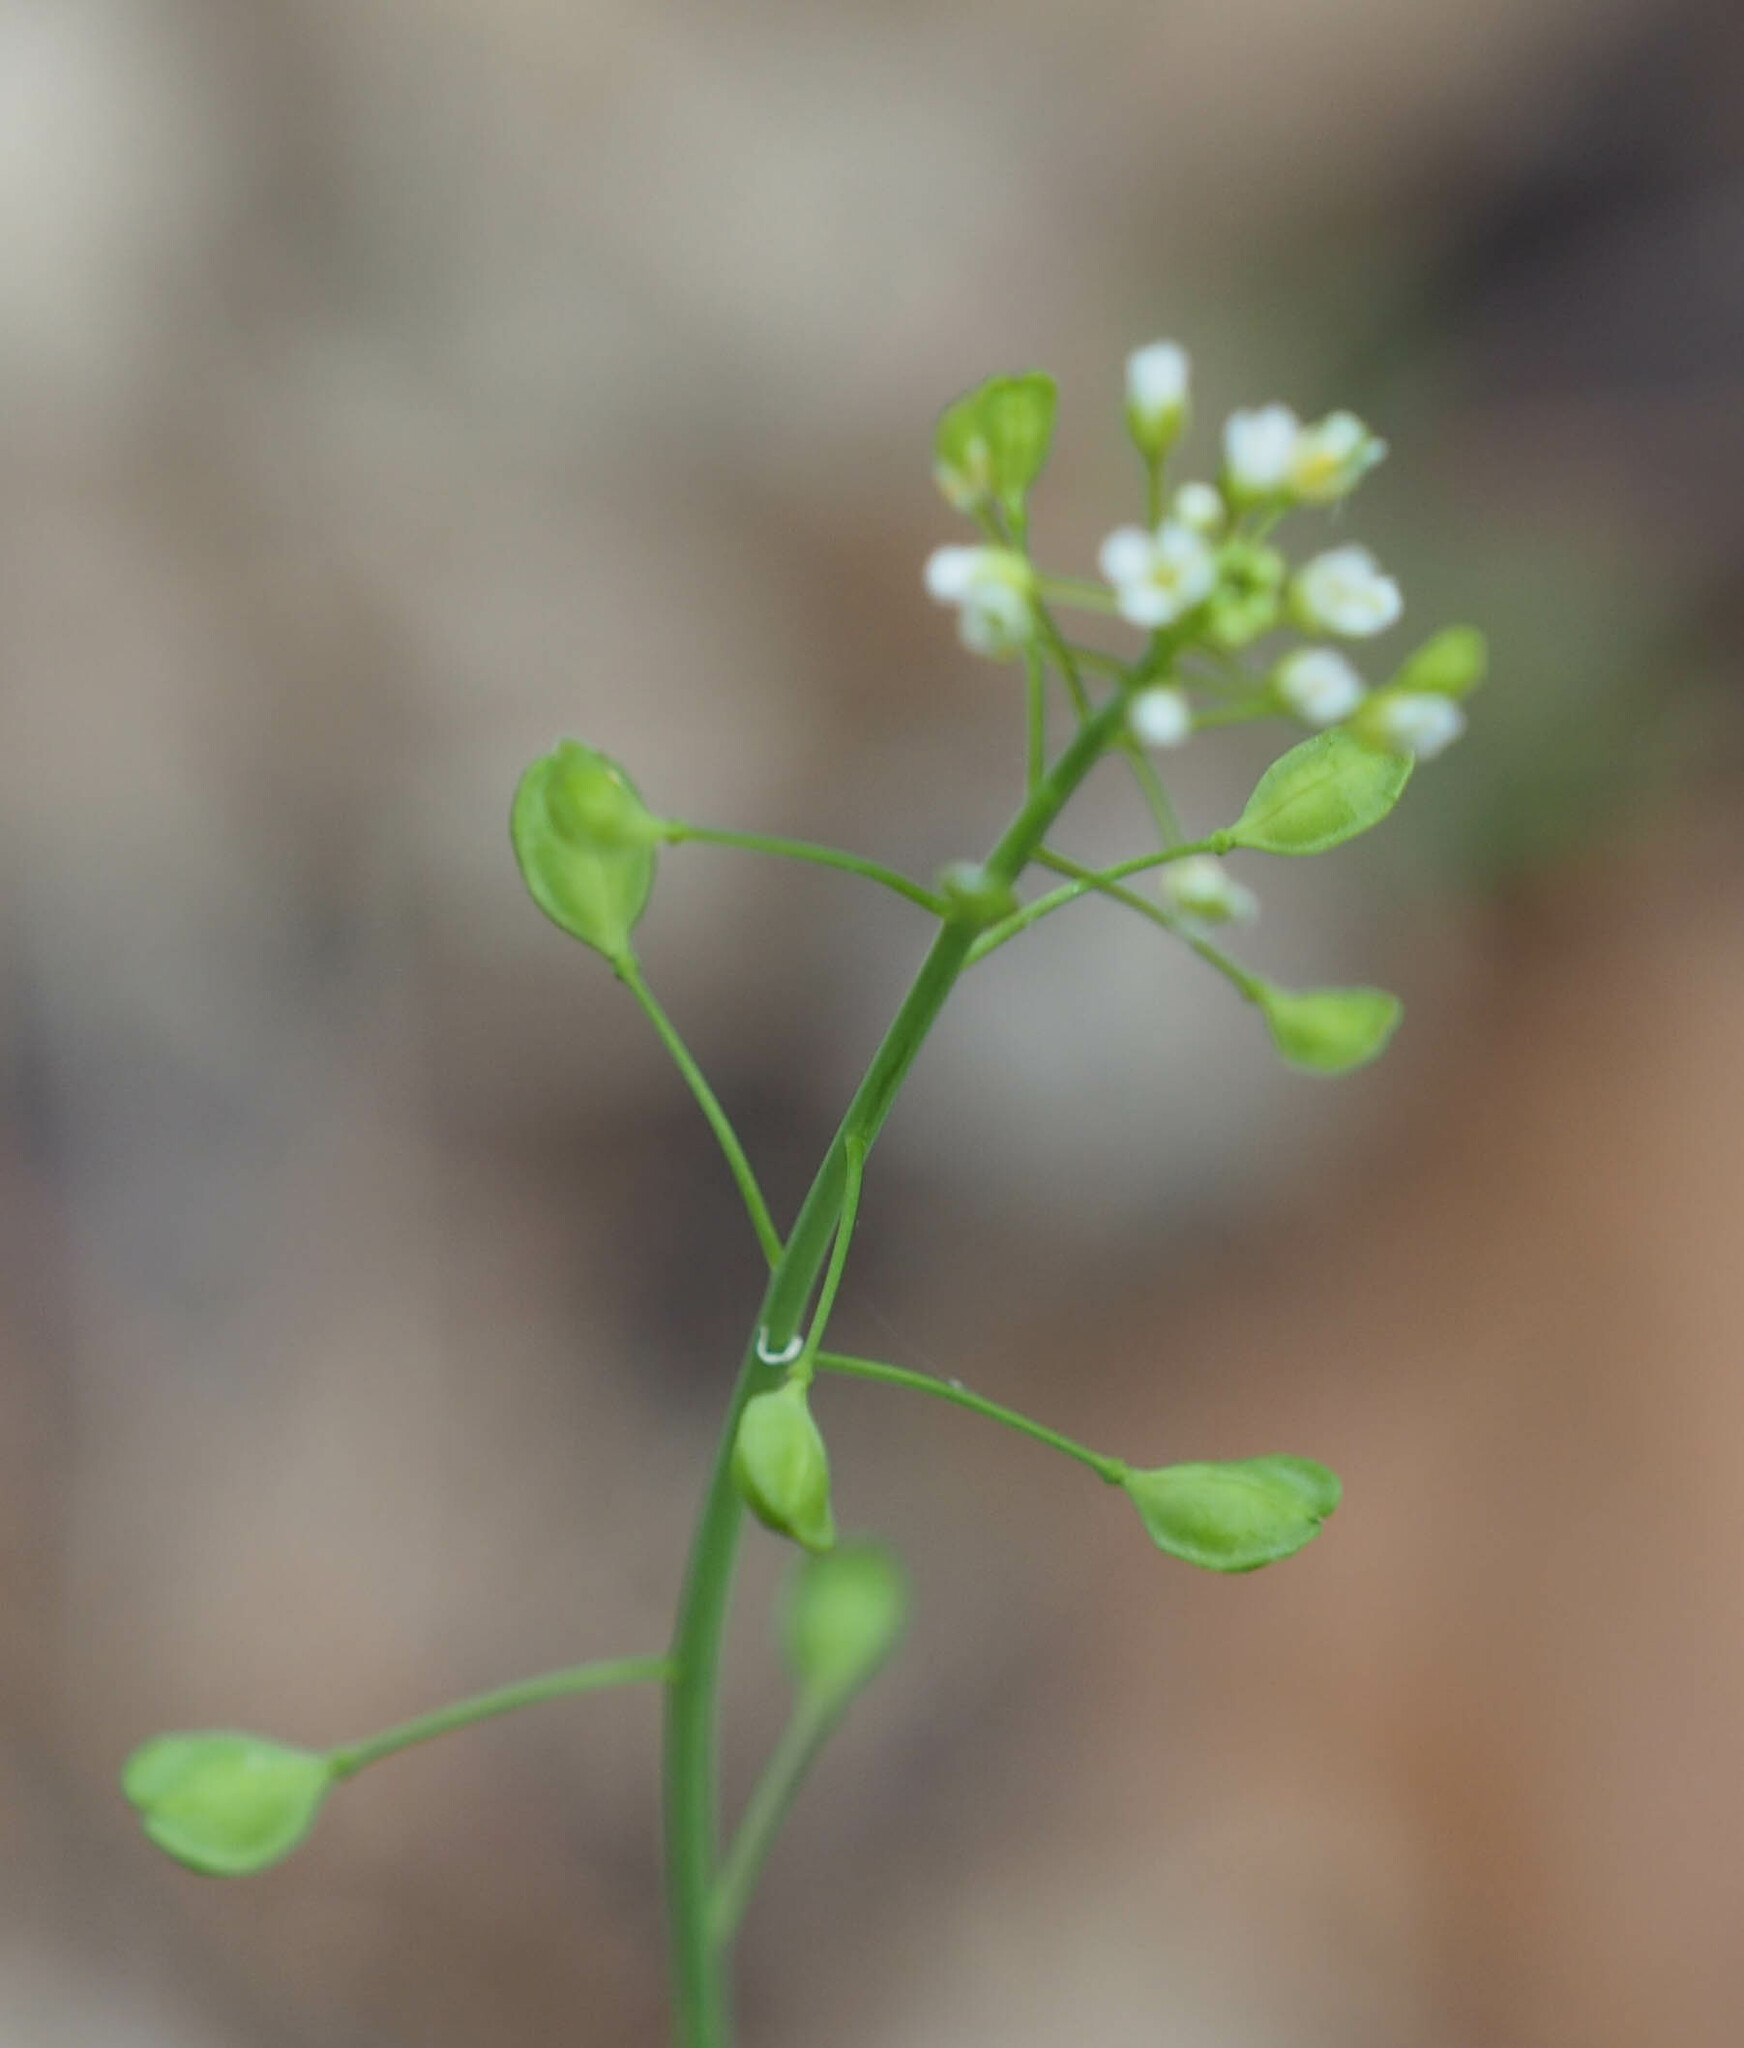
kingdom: Plantae
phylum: Tracheophyta
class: Magnoliopsida
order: Brassicales
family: Brassicaceae
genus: Mummenhoffia
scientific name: Mummenhoffia alliacea
